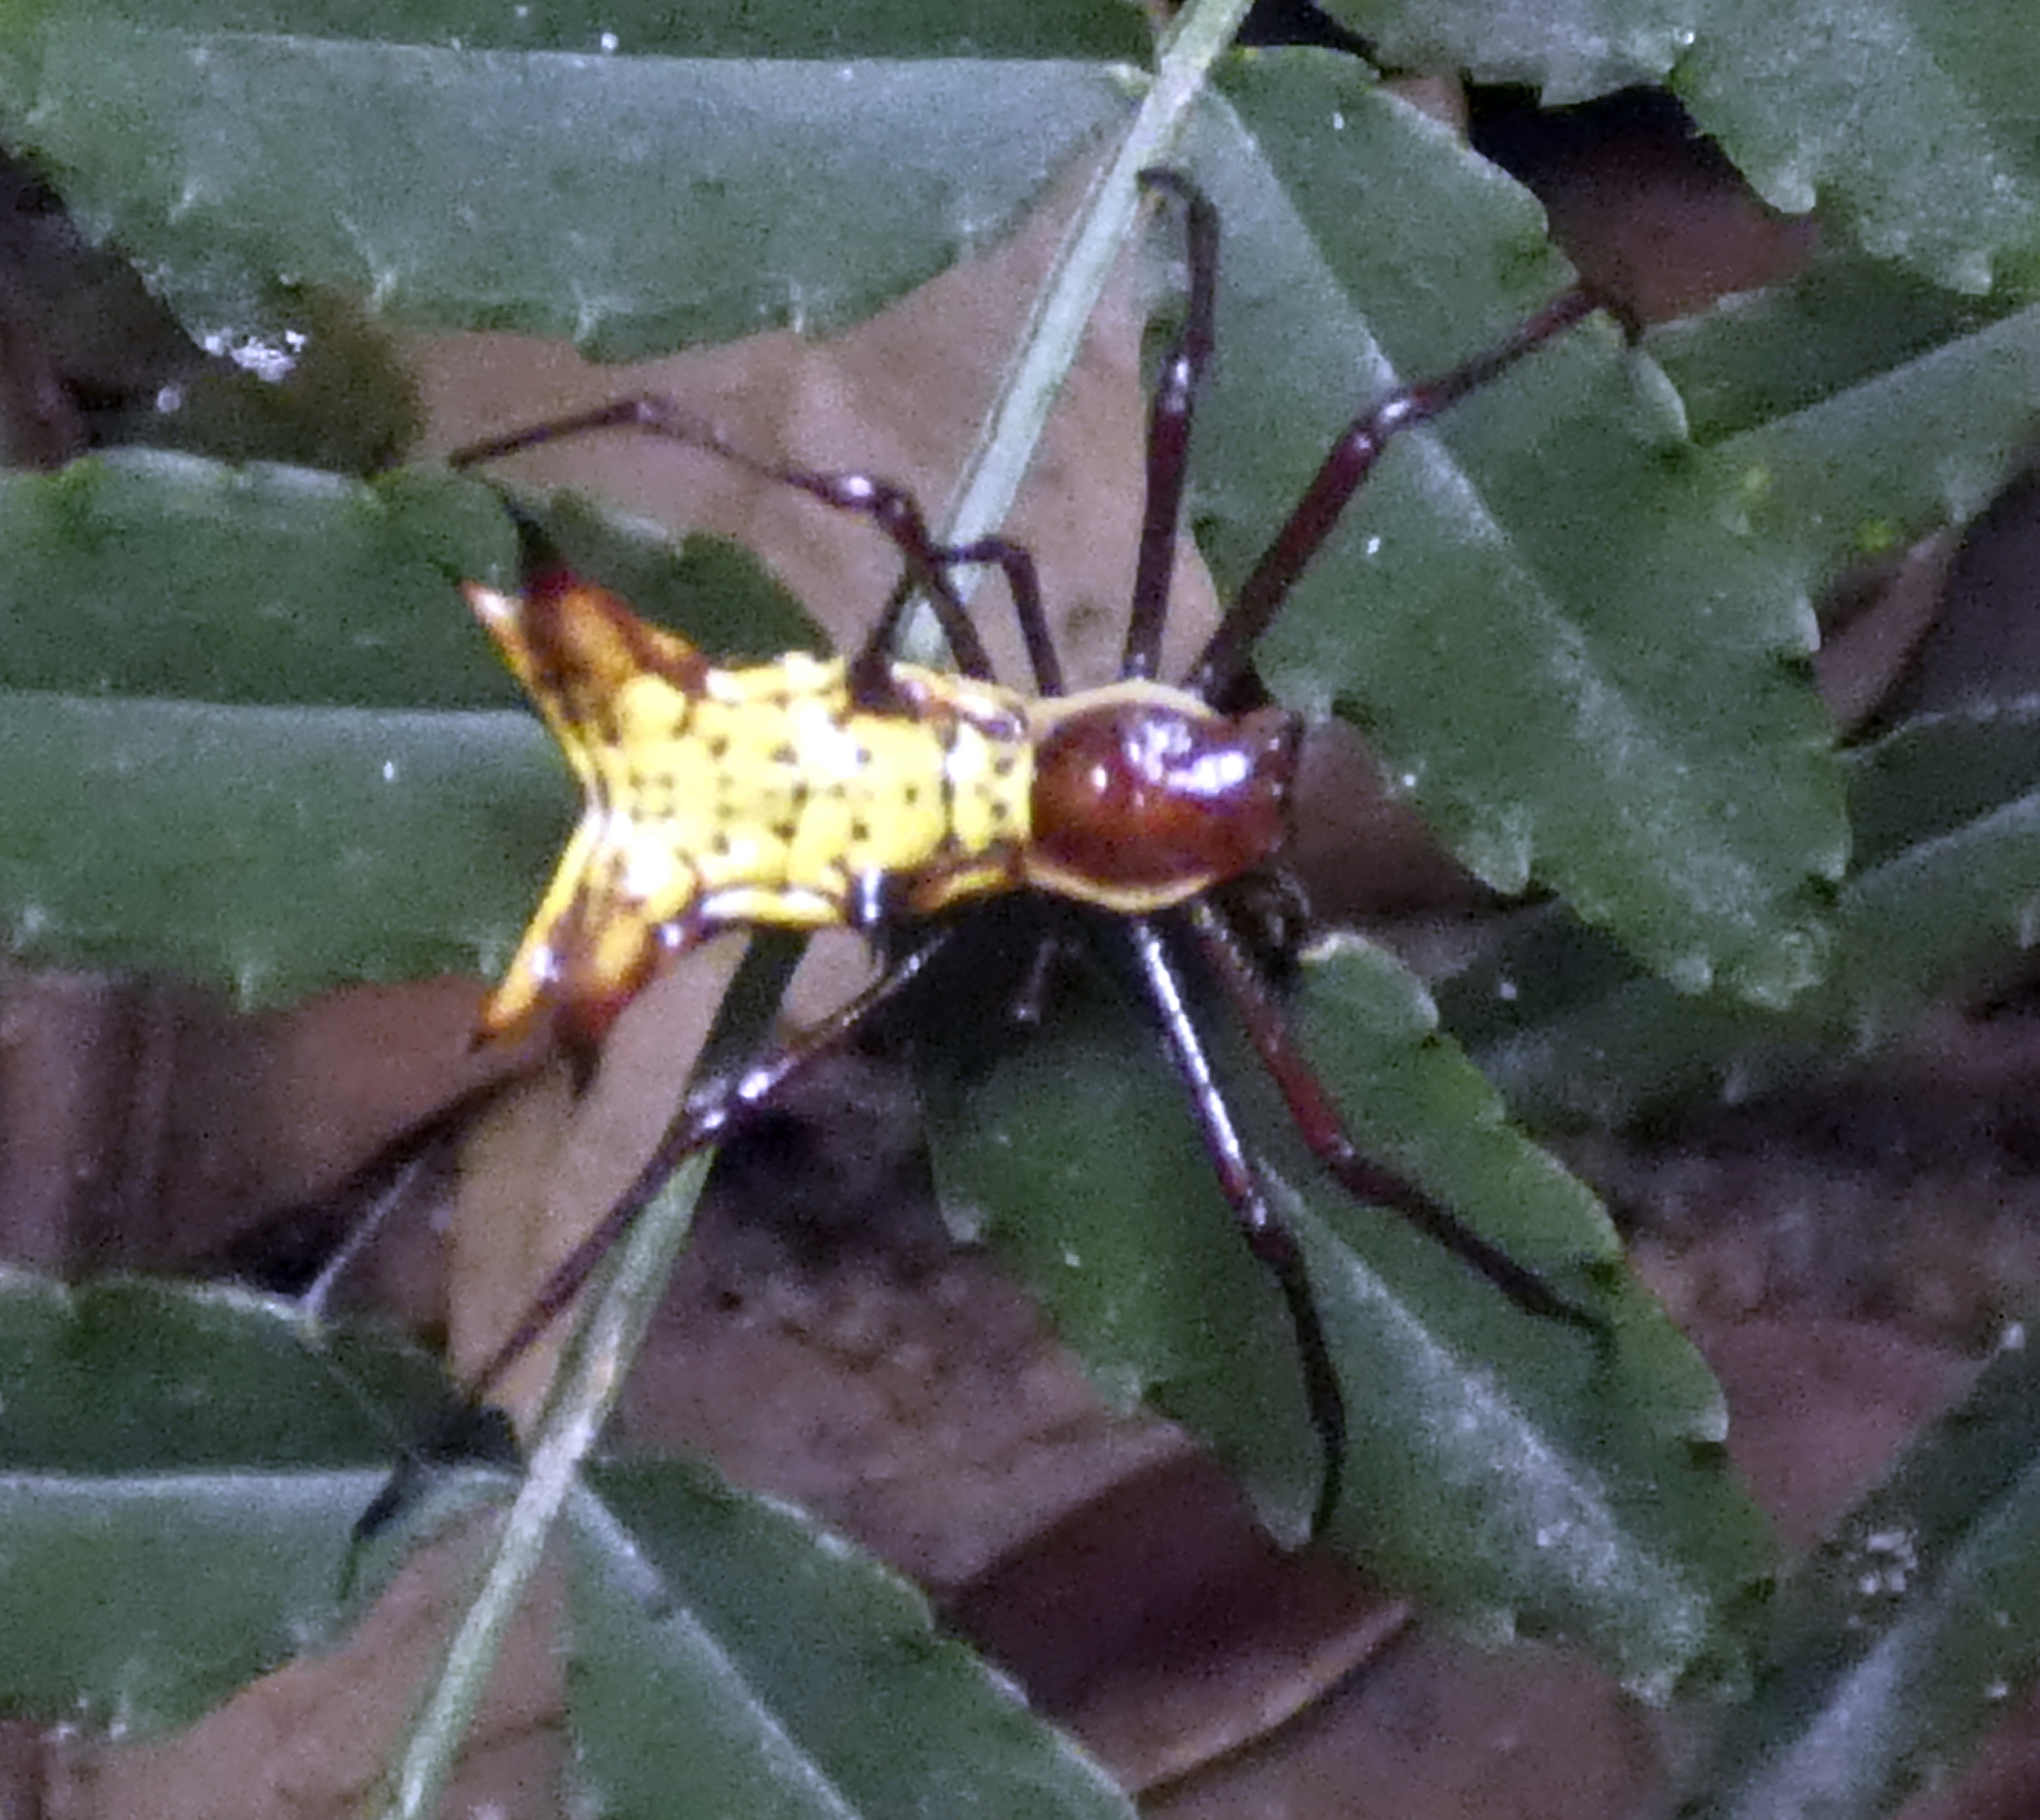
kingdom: Animalia
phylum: Arthropoda
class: Arachnida
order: Araneae
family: Araneidae
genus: Micrathena
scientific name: Micrathena fissispina
